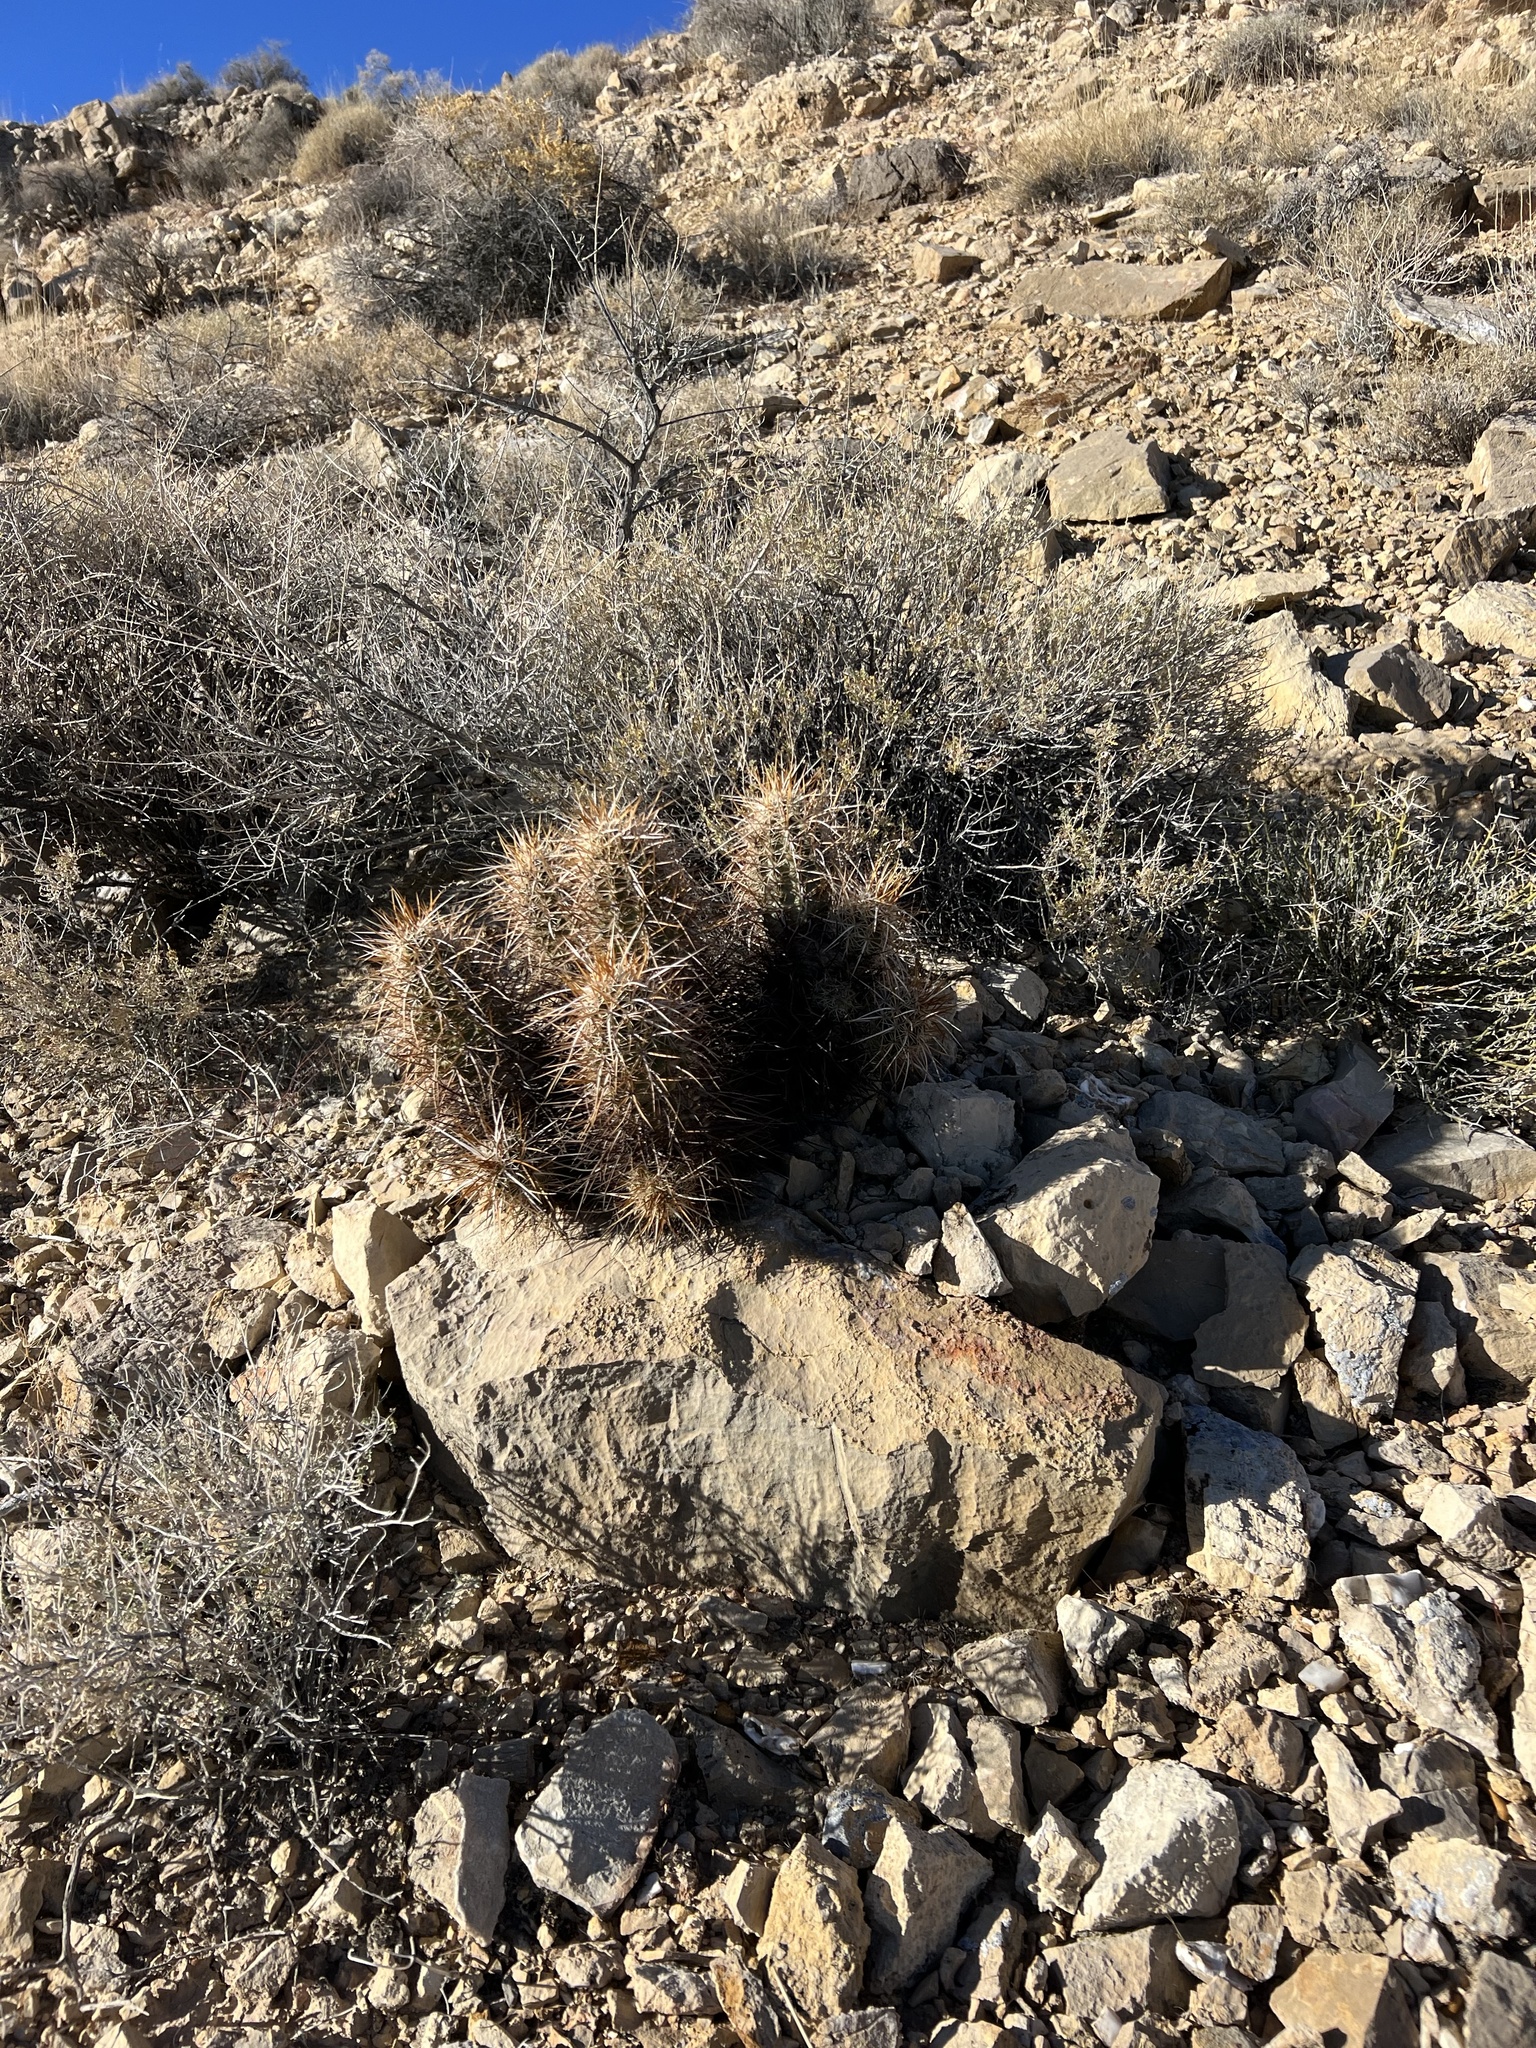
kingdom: Plantae
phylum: Tracheophyta
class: Magnoliopsida
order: Caryophyllales
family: Cactaceae
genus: Echinocereus
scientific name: Echinocereus engelmannii
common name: Engelmann's hedgehog cactus
